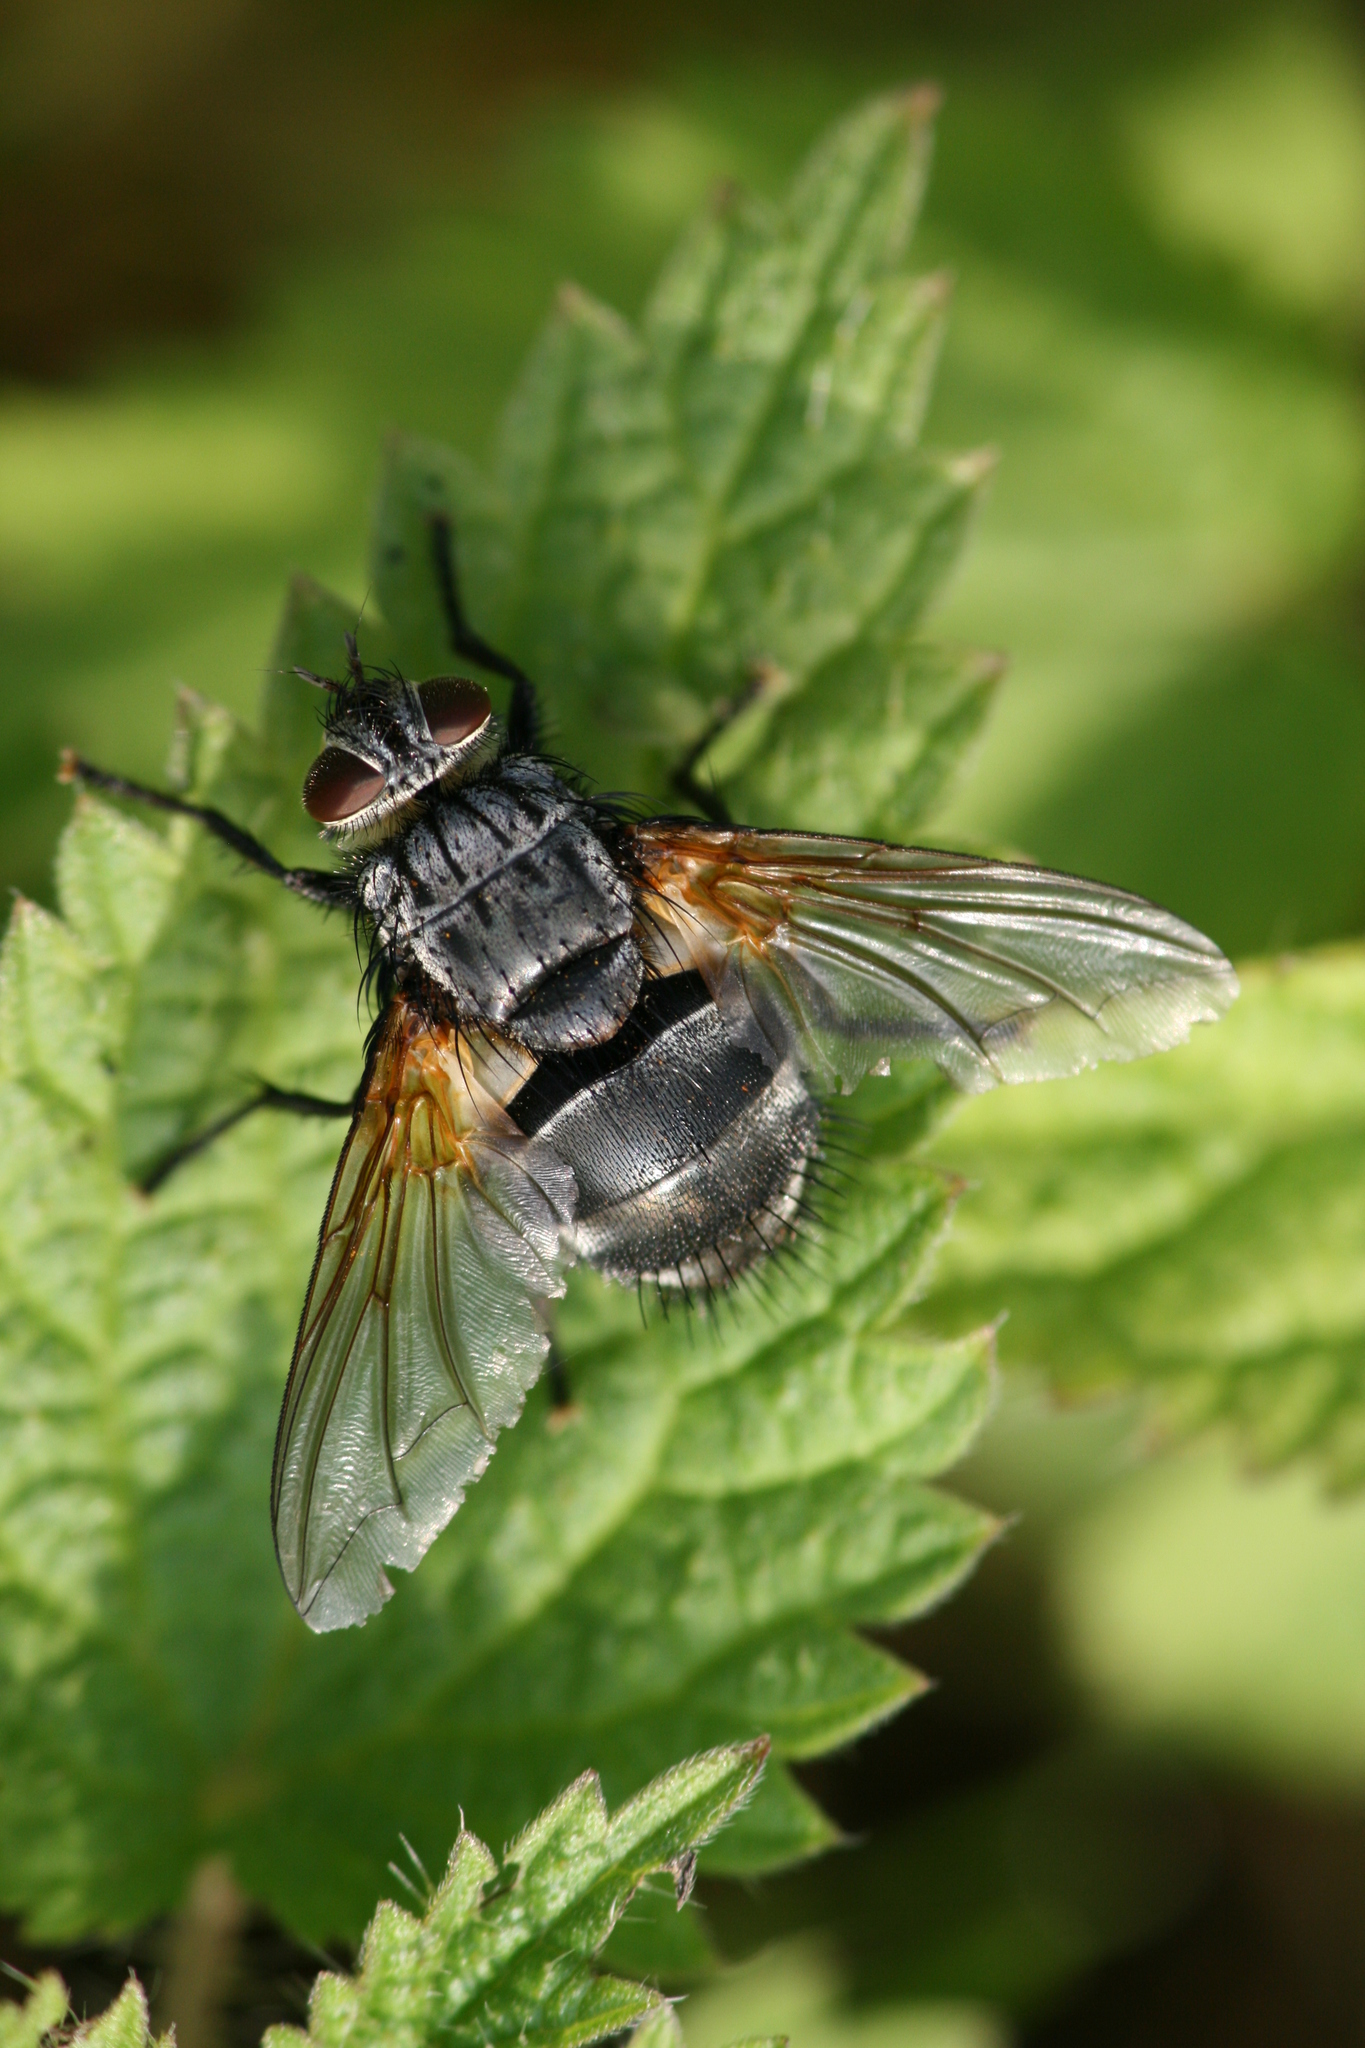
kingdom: Animalia
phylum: Arthropoda
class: Insecta
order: Diptera
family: Tachinidae
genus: Nemoraea
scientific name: Nemoraea pellucida
